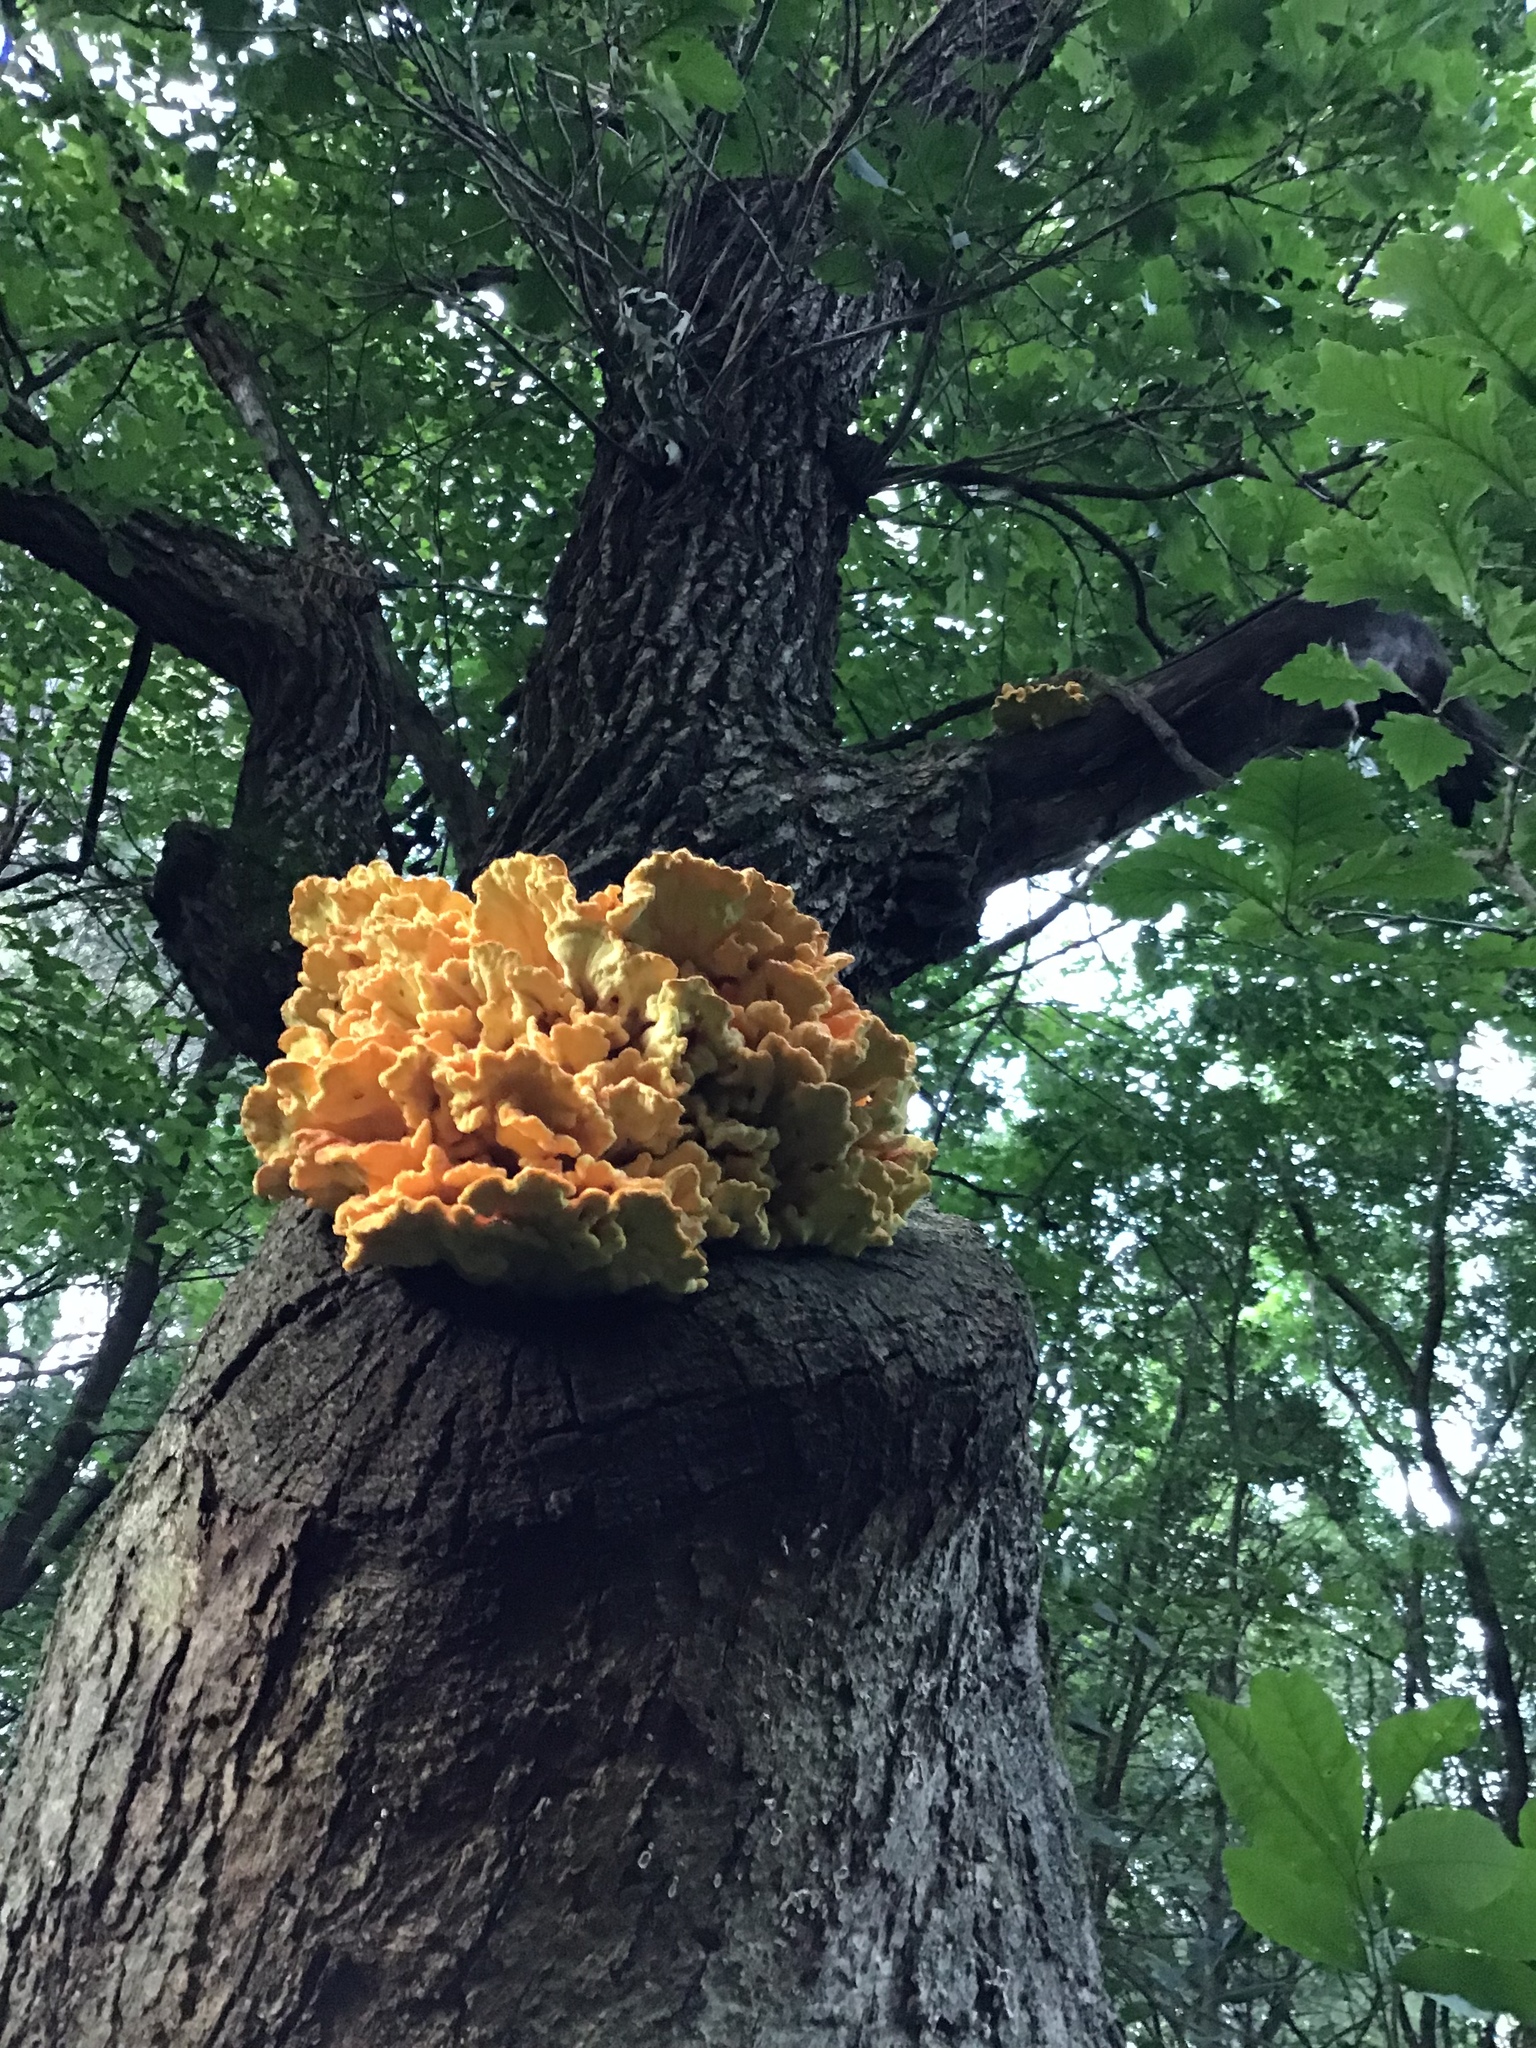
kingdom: Fungi
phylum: Basidiomycota
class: Agaricomycetes
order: Polyporales
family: Laetiporaceae
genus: Laetiporus
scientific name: Laetiporus sulphureus
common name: Chicken of the woods
